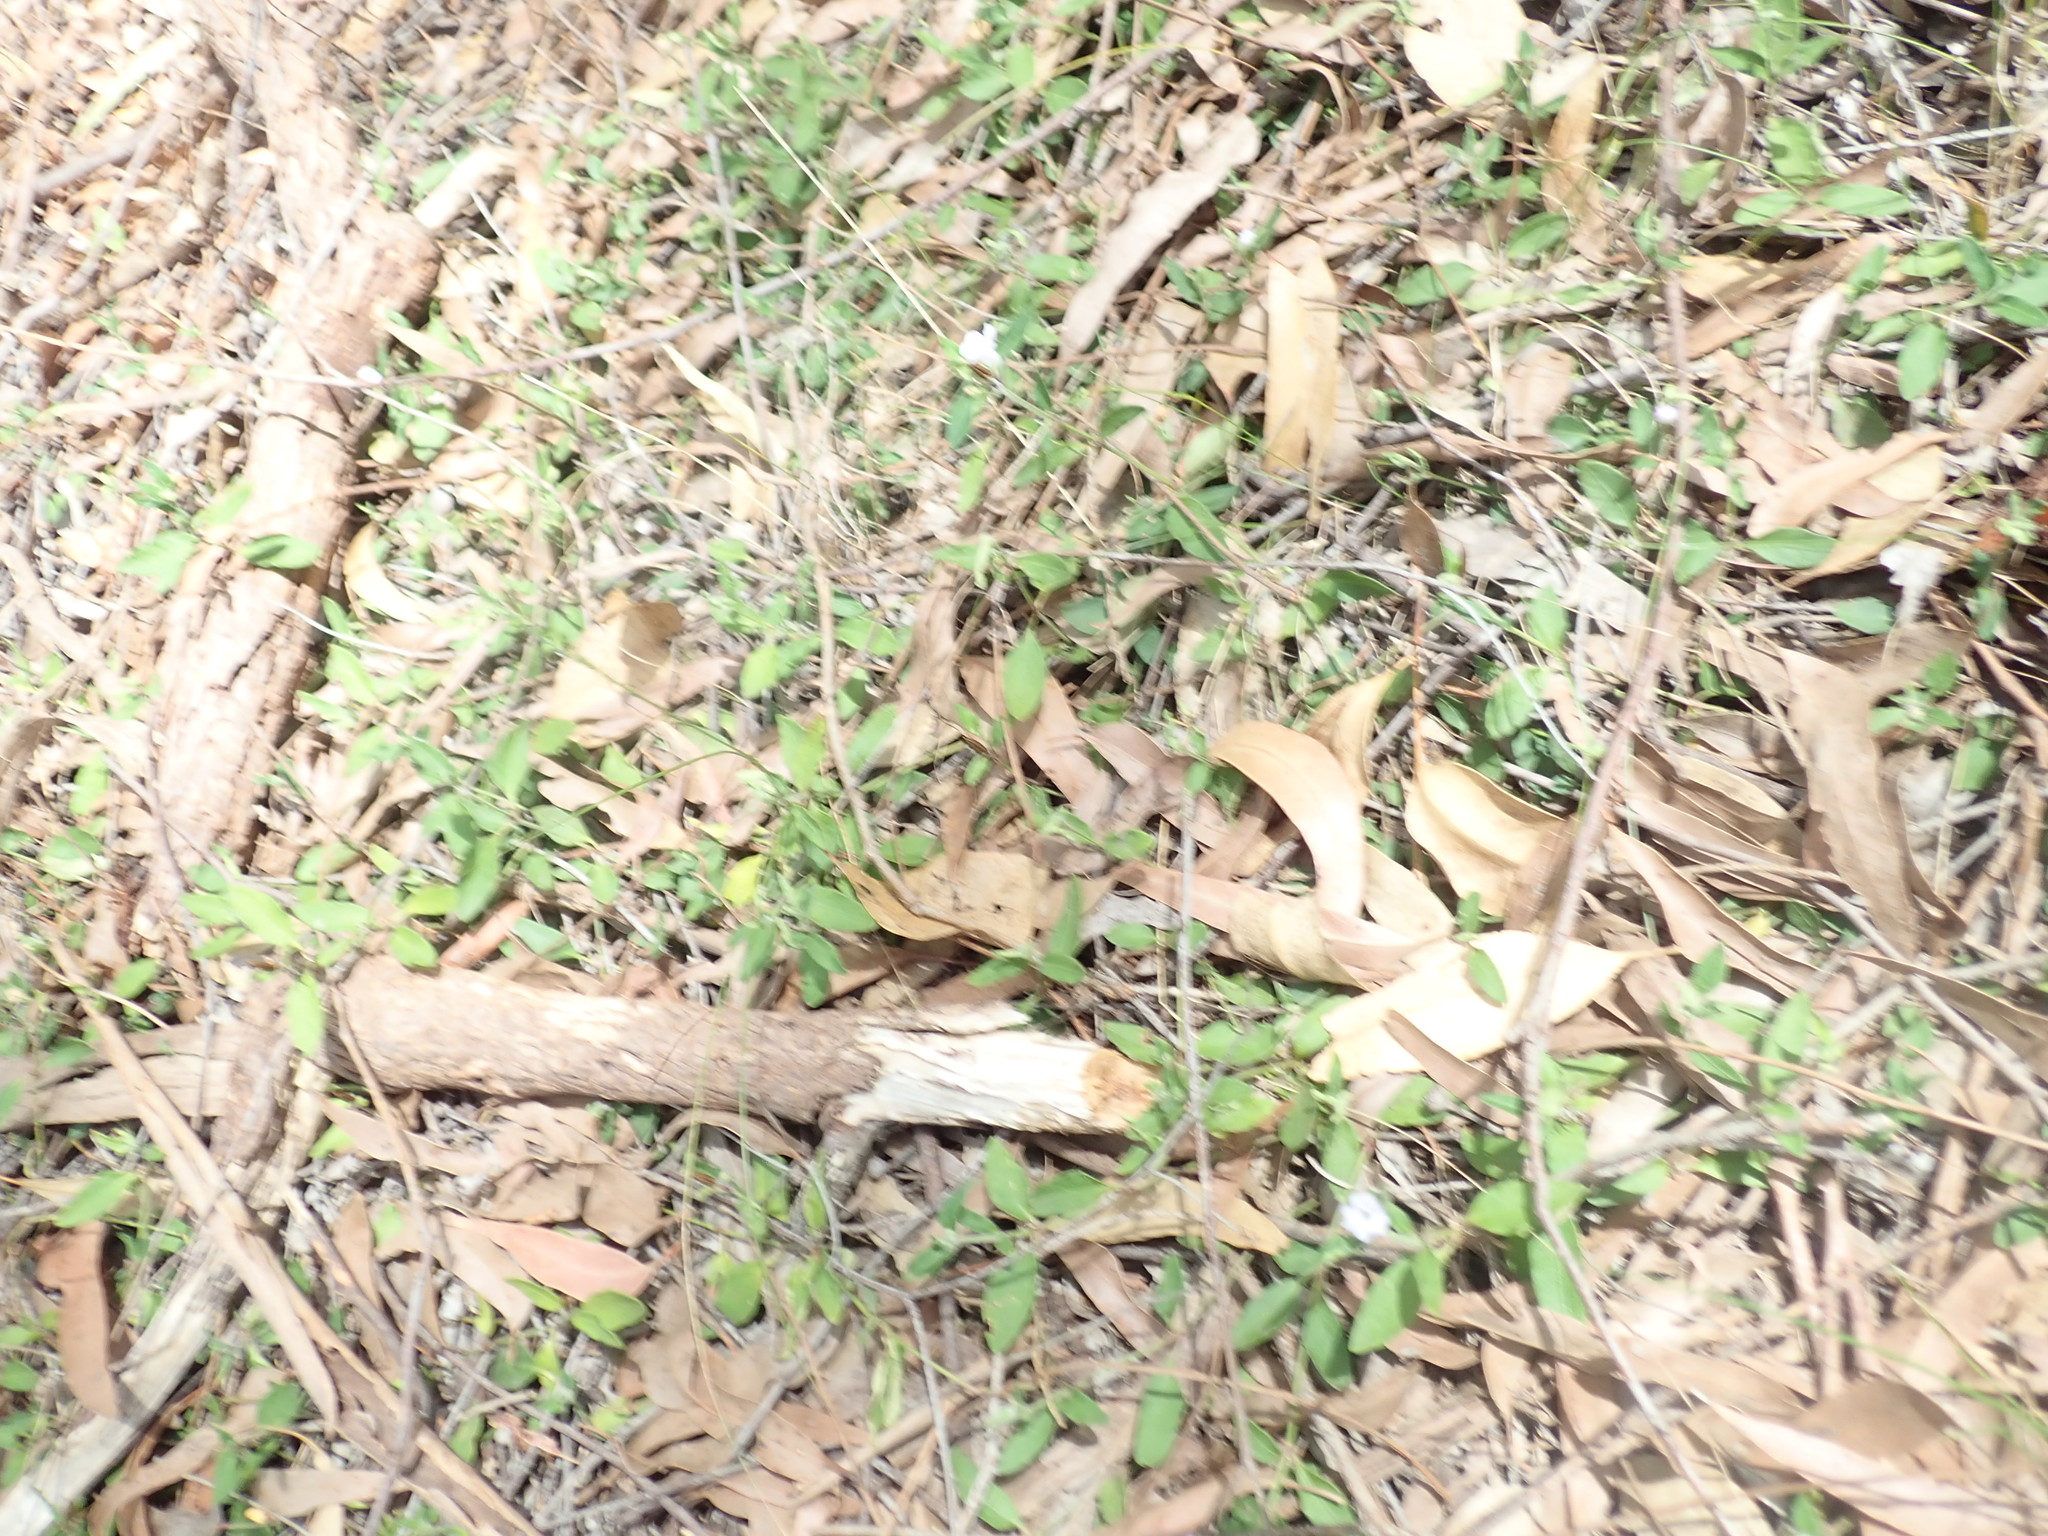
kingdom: Plantae
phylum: Tracheophyta
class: Magnoliopsida
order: Lamiales
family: Acanthaceae
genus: Brunoniella
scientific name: Brunoniella australis
